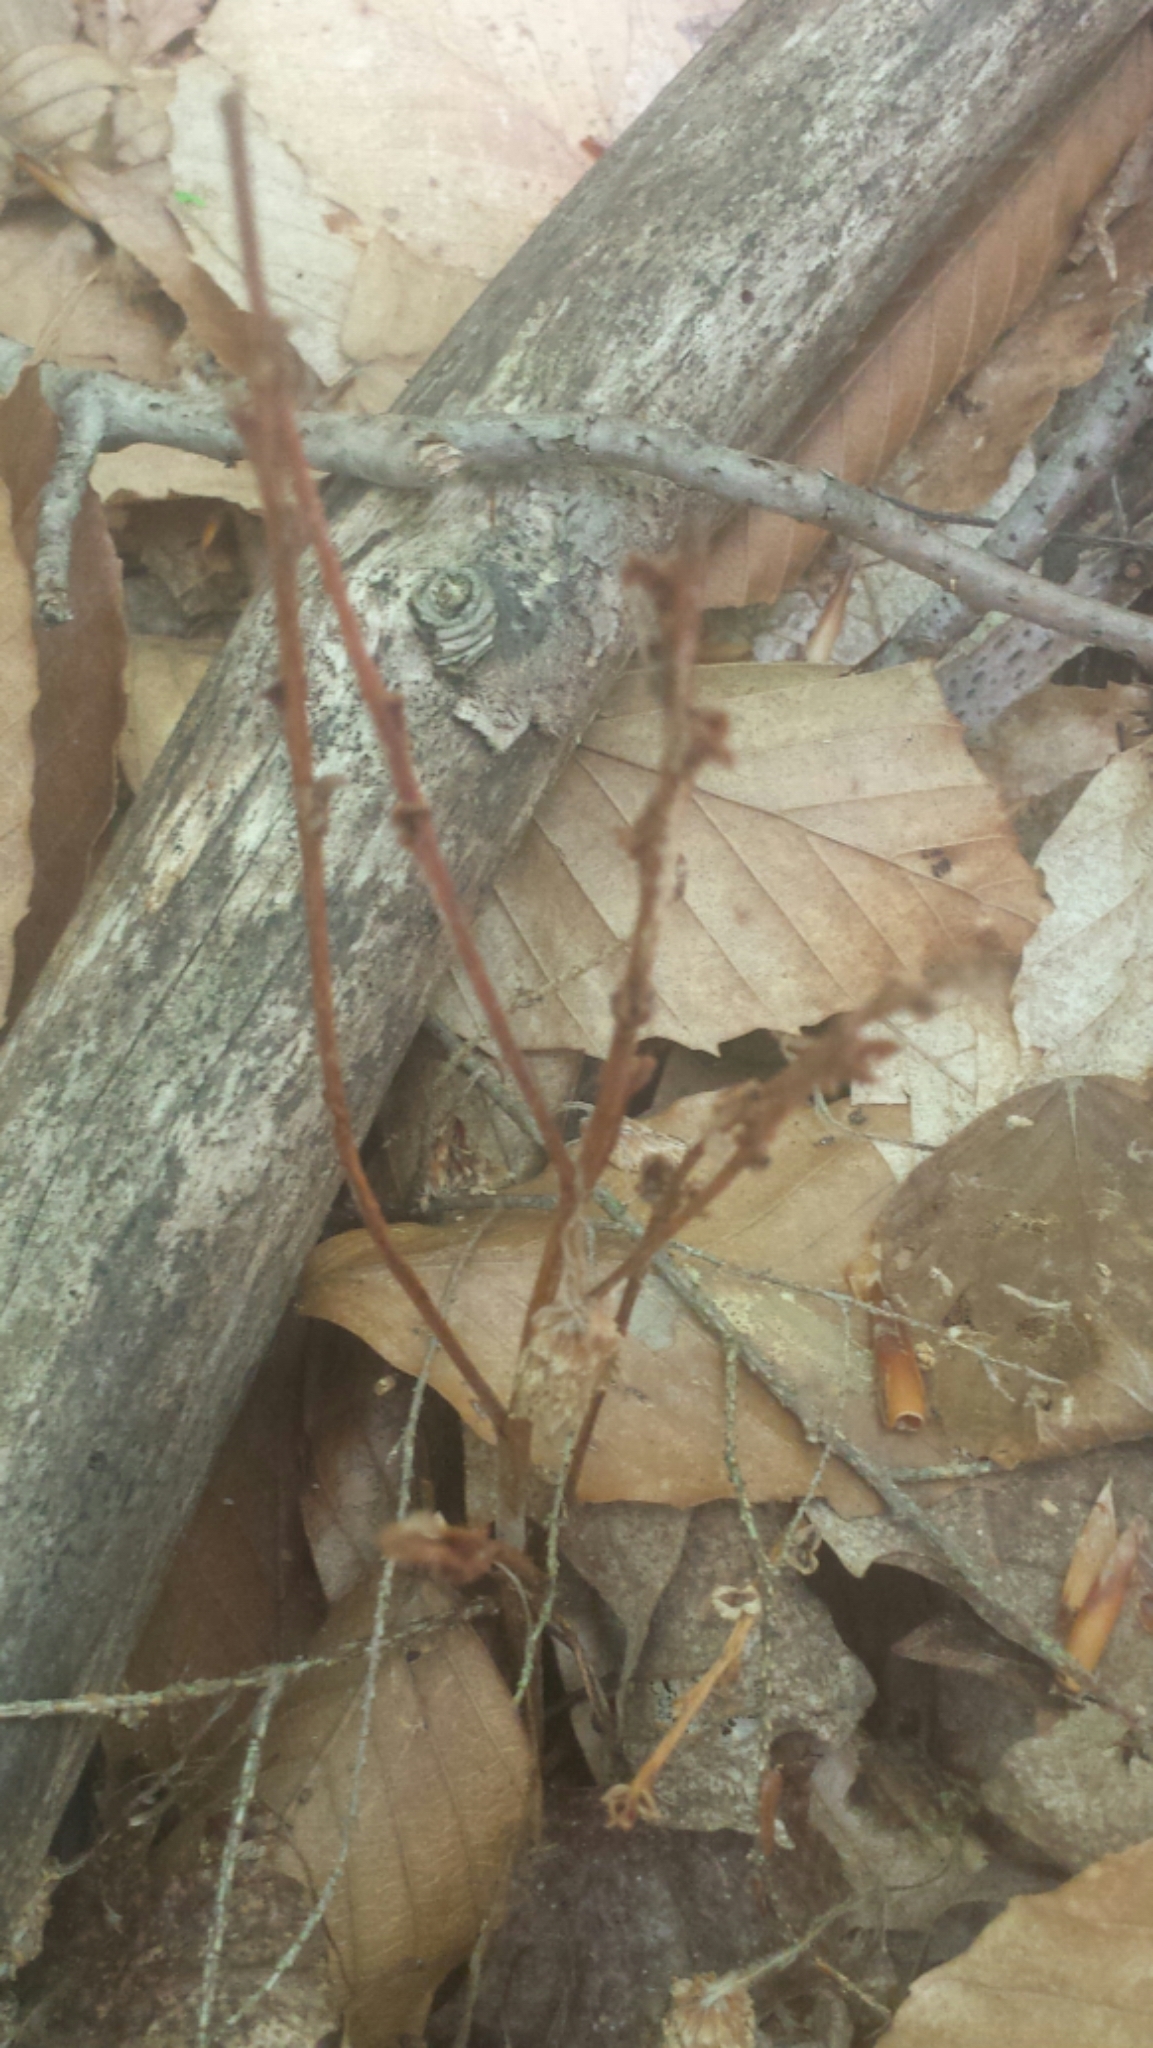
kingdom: Plantae
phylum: Tracheophyta
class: Magnoliopsida
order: Lamiales
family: Orobanchaceae
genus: Epifagus
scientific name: Epifagus virginiana
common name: Beechdrops
